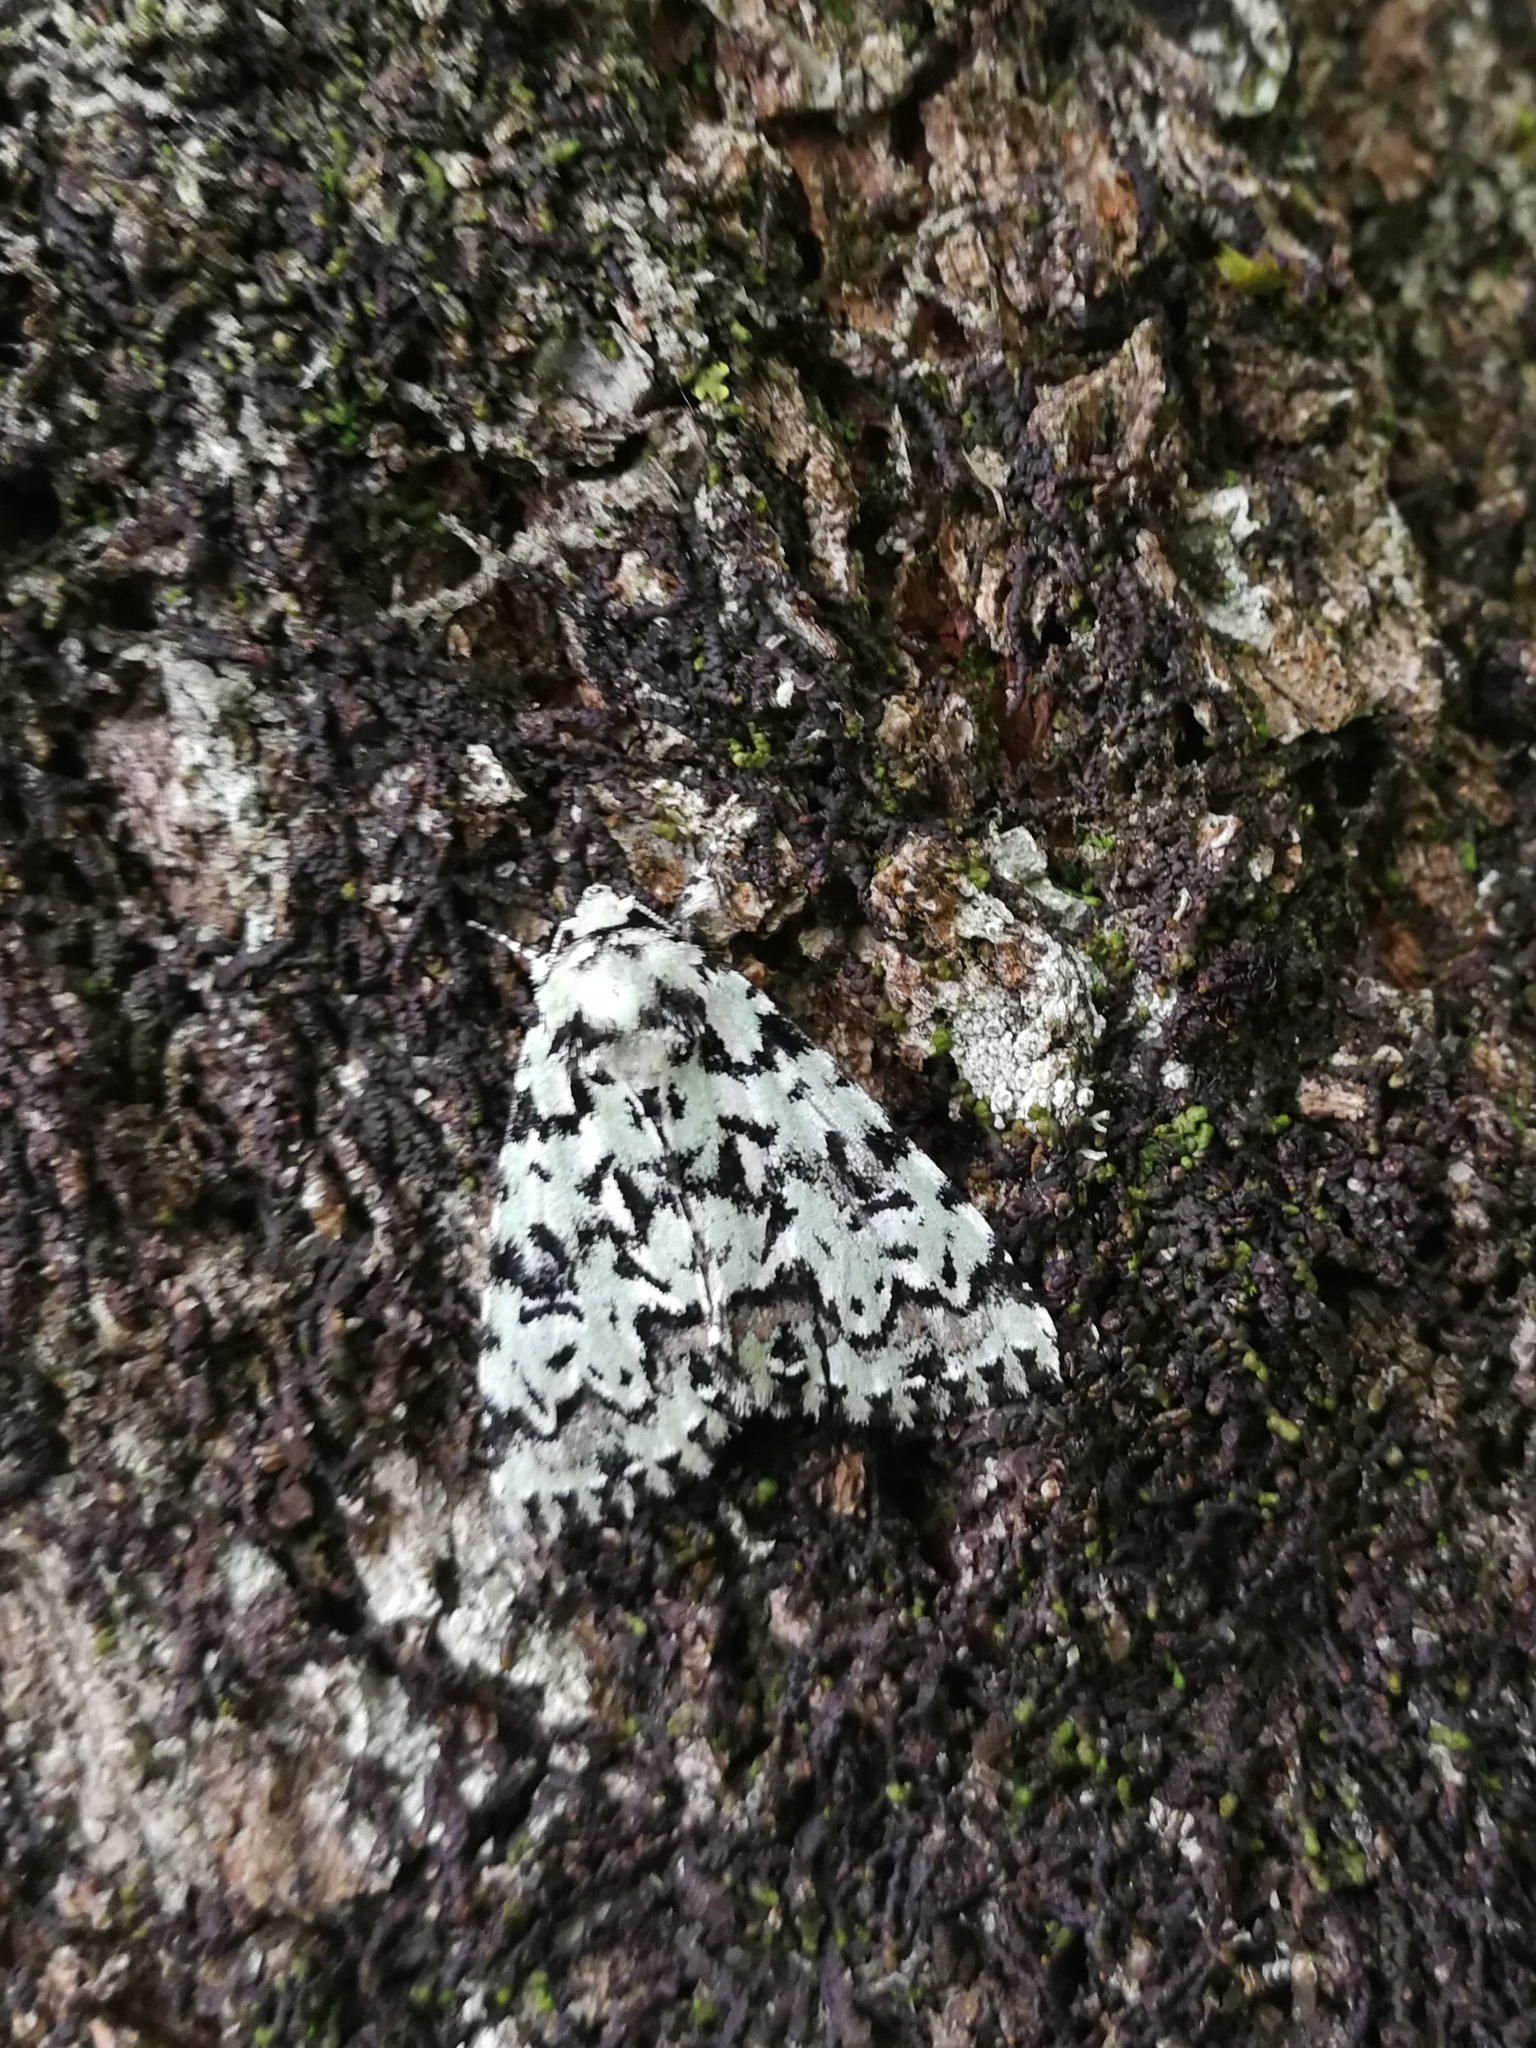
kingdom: Animalia
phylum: Arthropoda
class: Insecta
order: Lepidoptera
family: Noctuidae
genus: Moma
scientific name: Moma alpium
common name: Scarce merveille du jour
